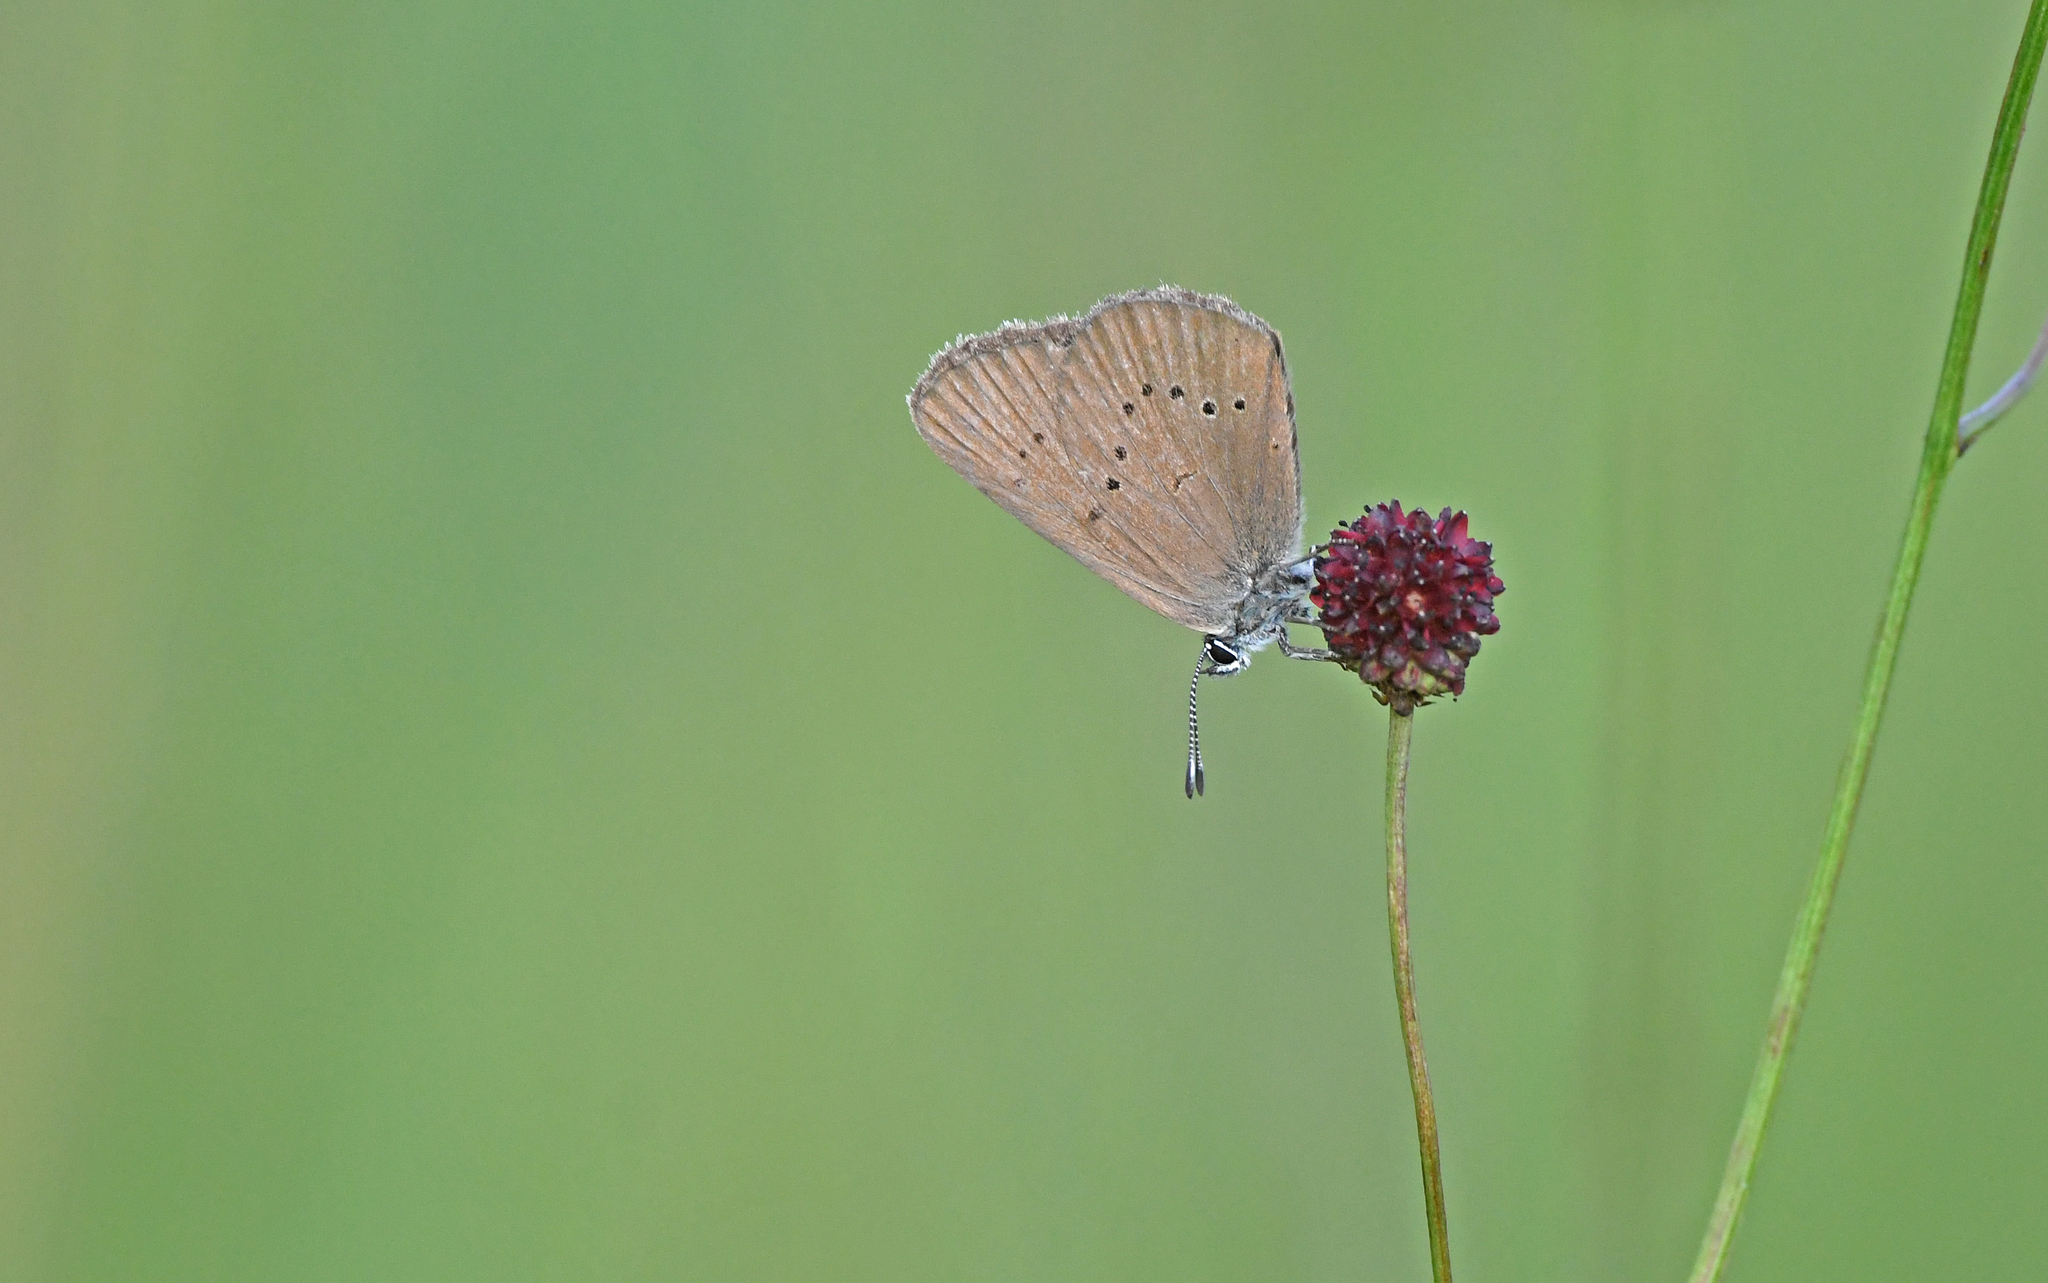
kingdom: Animalia
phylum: Arthropoda
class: Insecta
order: Lepidoptera
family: Lycaenidae
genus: Maculinea
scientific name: Maculinea nausithous
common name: Dusky large blue
